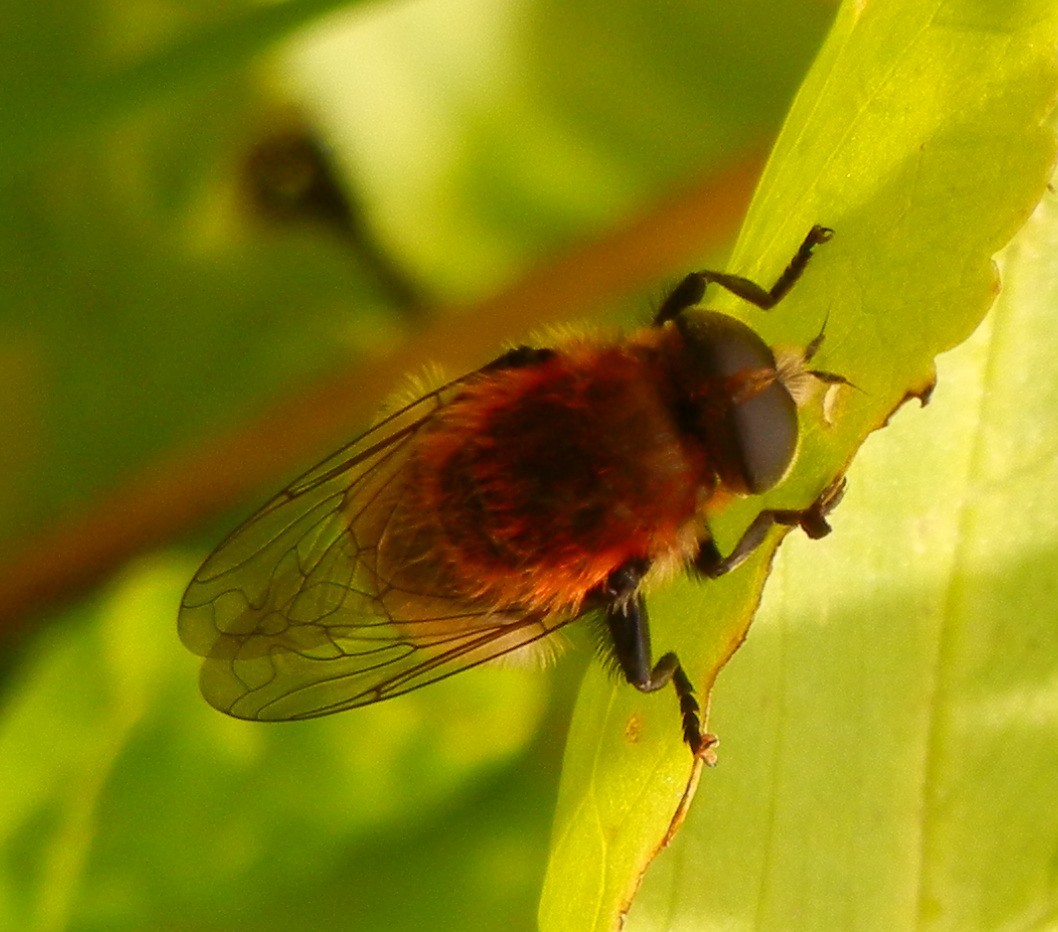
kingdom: Animalia
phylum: Arthropoda
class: Insecta
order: Diptera
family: Syrphidae
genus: Merodon
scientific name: Merodon equestris
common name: Greater bulb-fly
